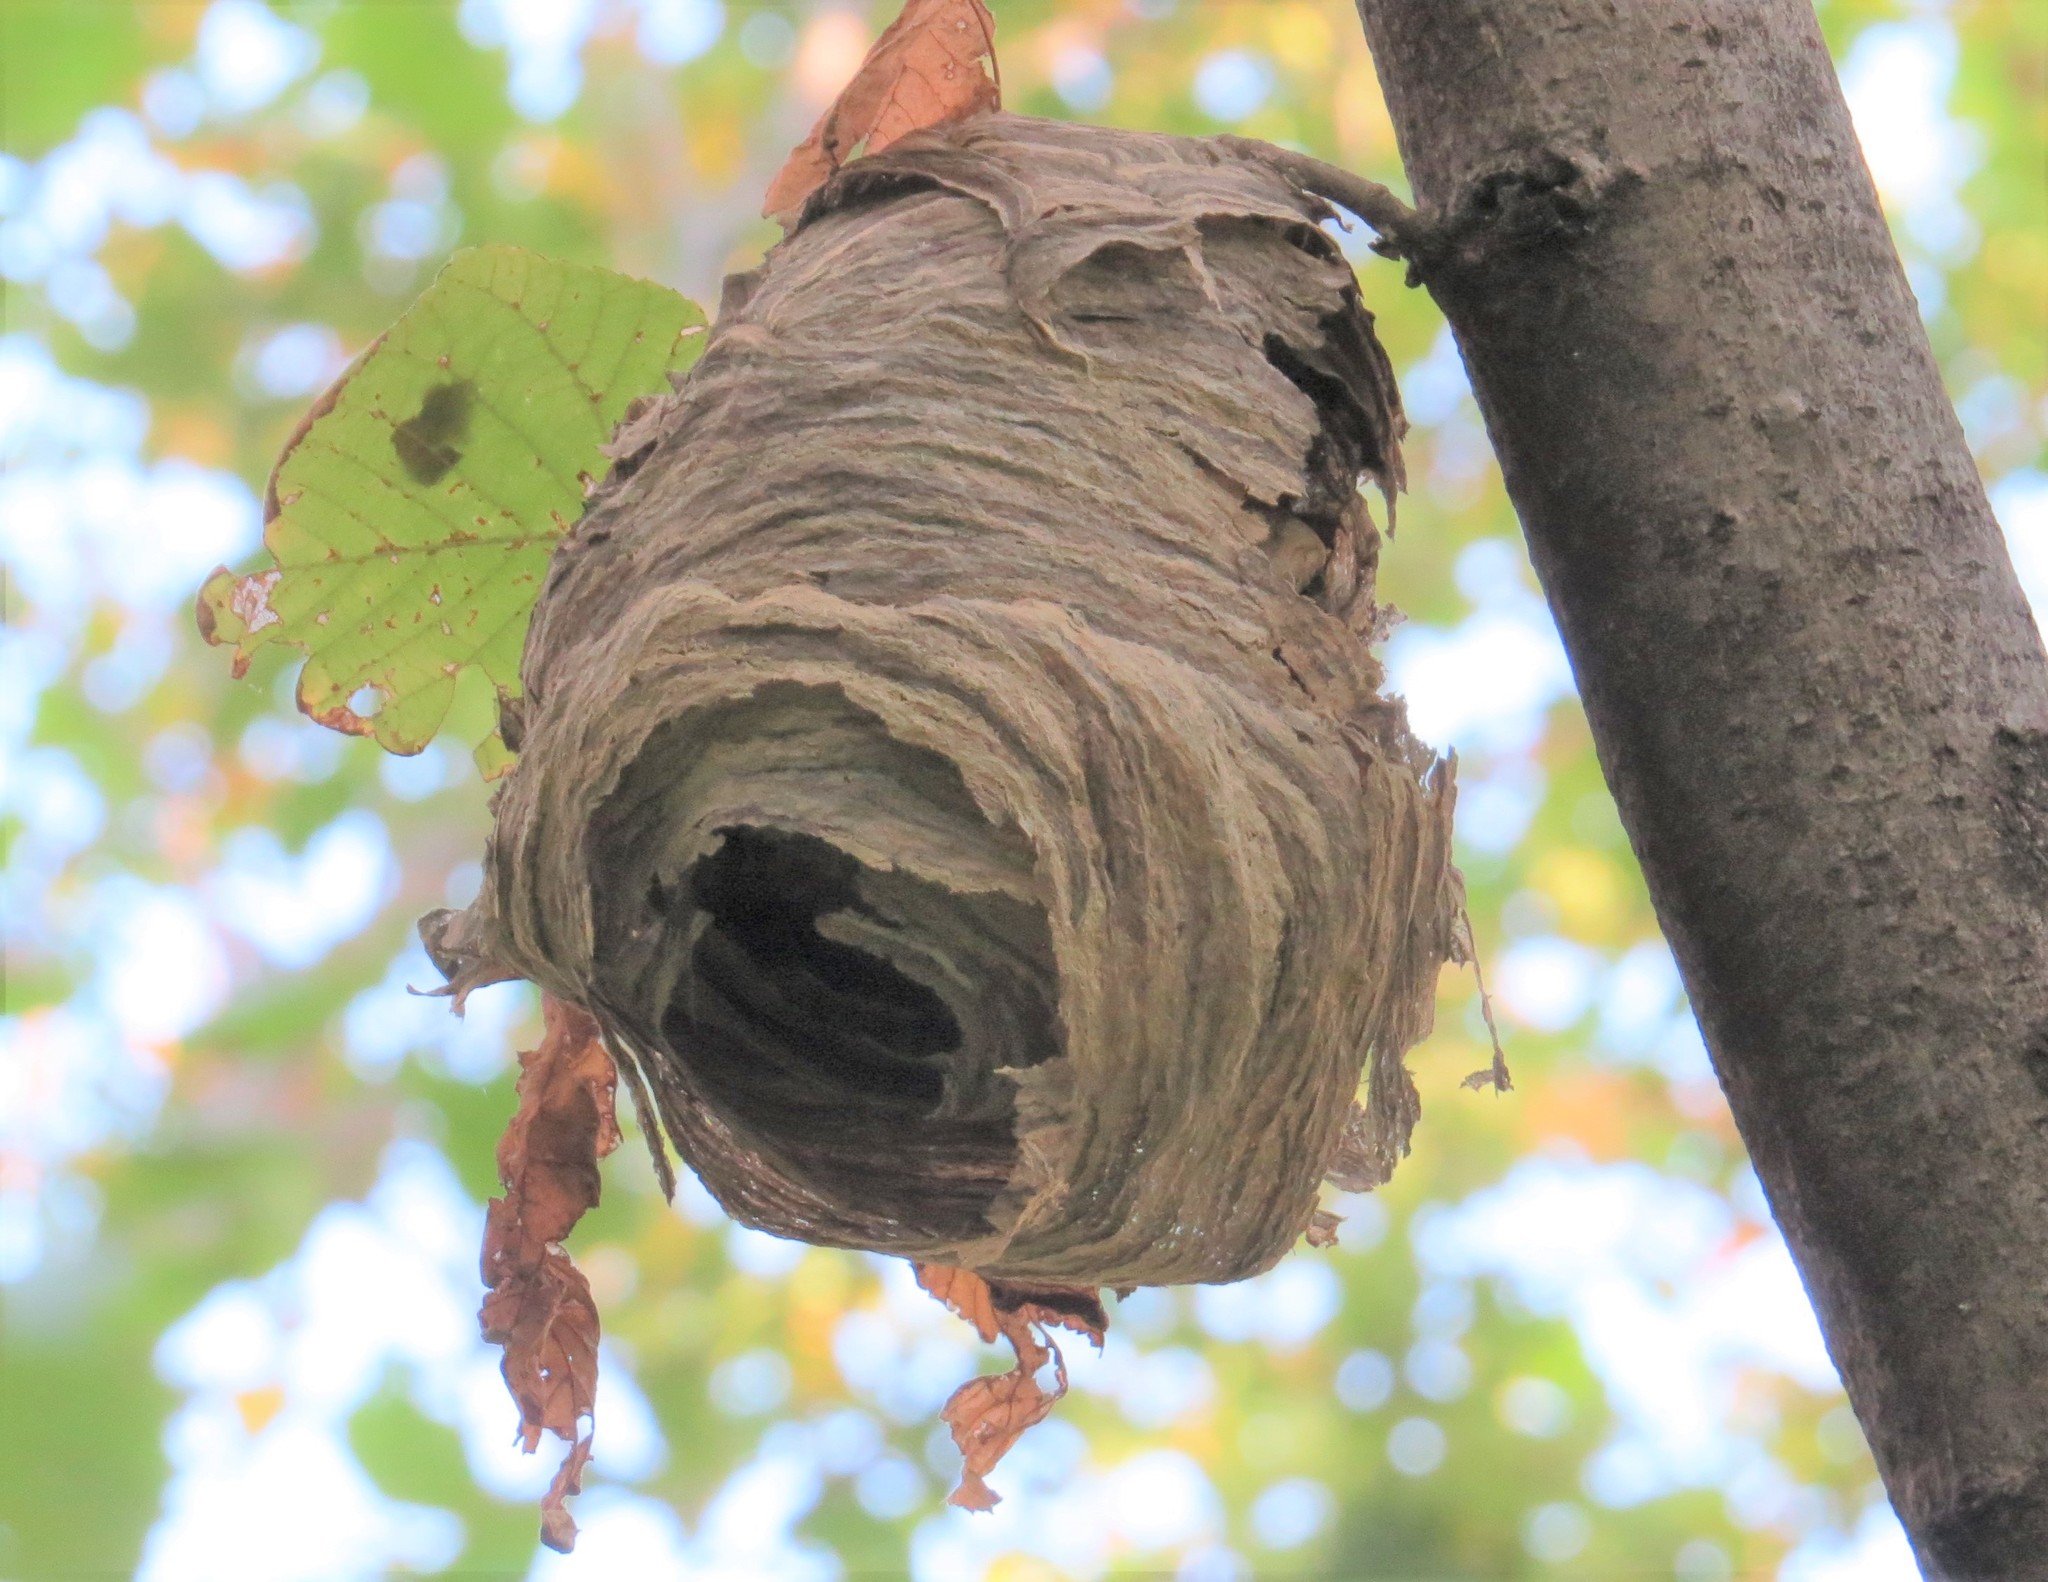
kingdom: Animalia
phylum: Arthropoda
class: Insecta
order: Hymenoptera
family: Vespidae
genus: Dolichovespula
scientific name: Dolichovespula
